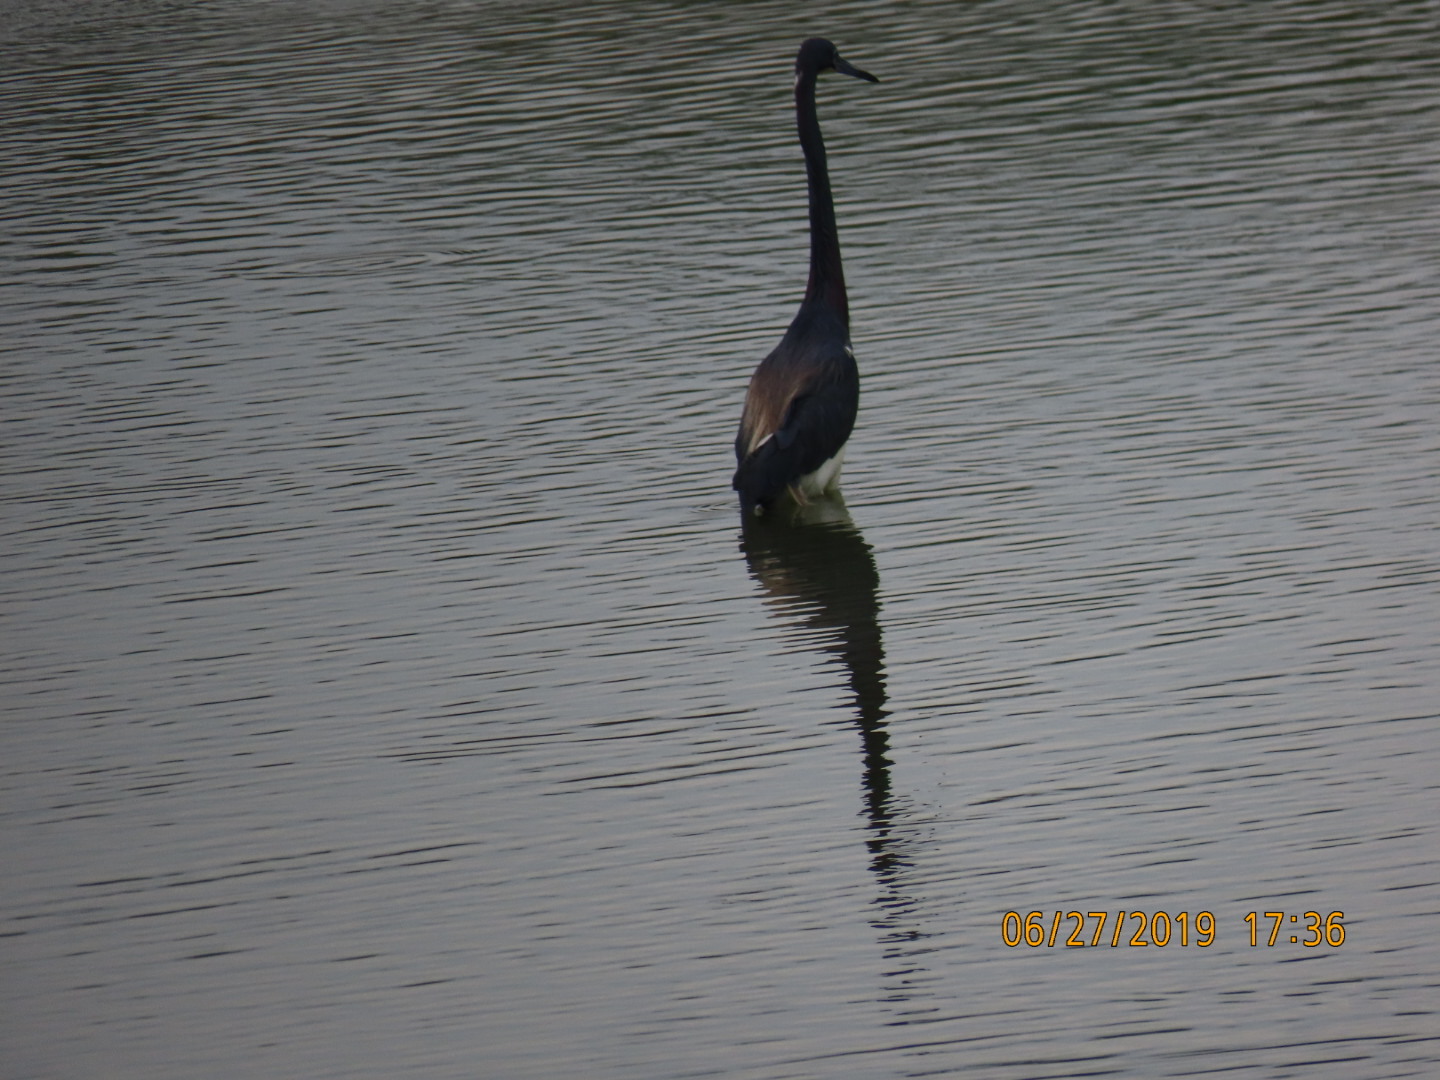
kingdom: Animalia
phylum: Chordata
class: Aves
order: Pelecaniformes
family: Ardeidae
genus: Egretta
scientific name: Egretta tricolor
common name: Tricolored heron
